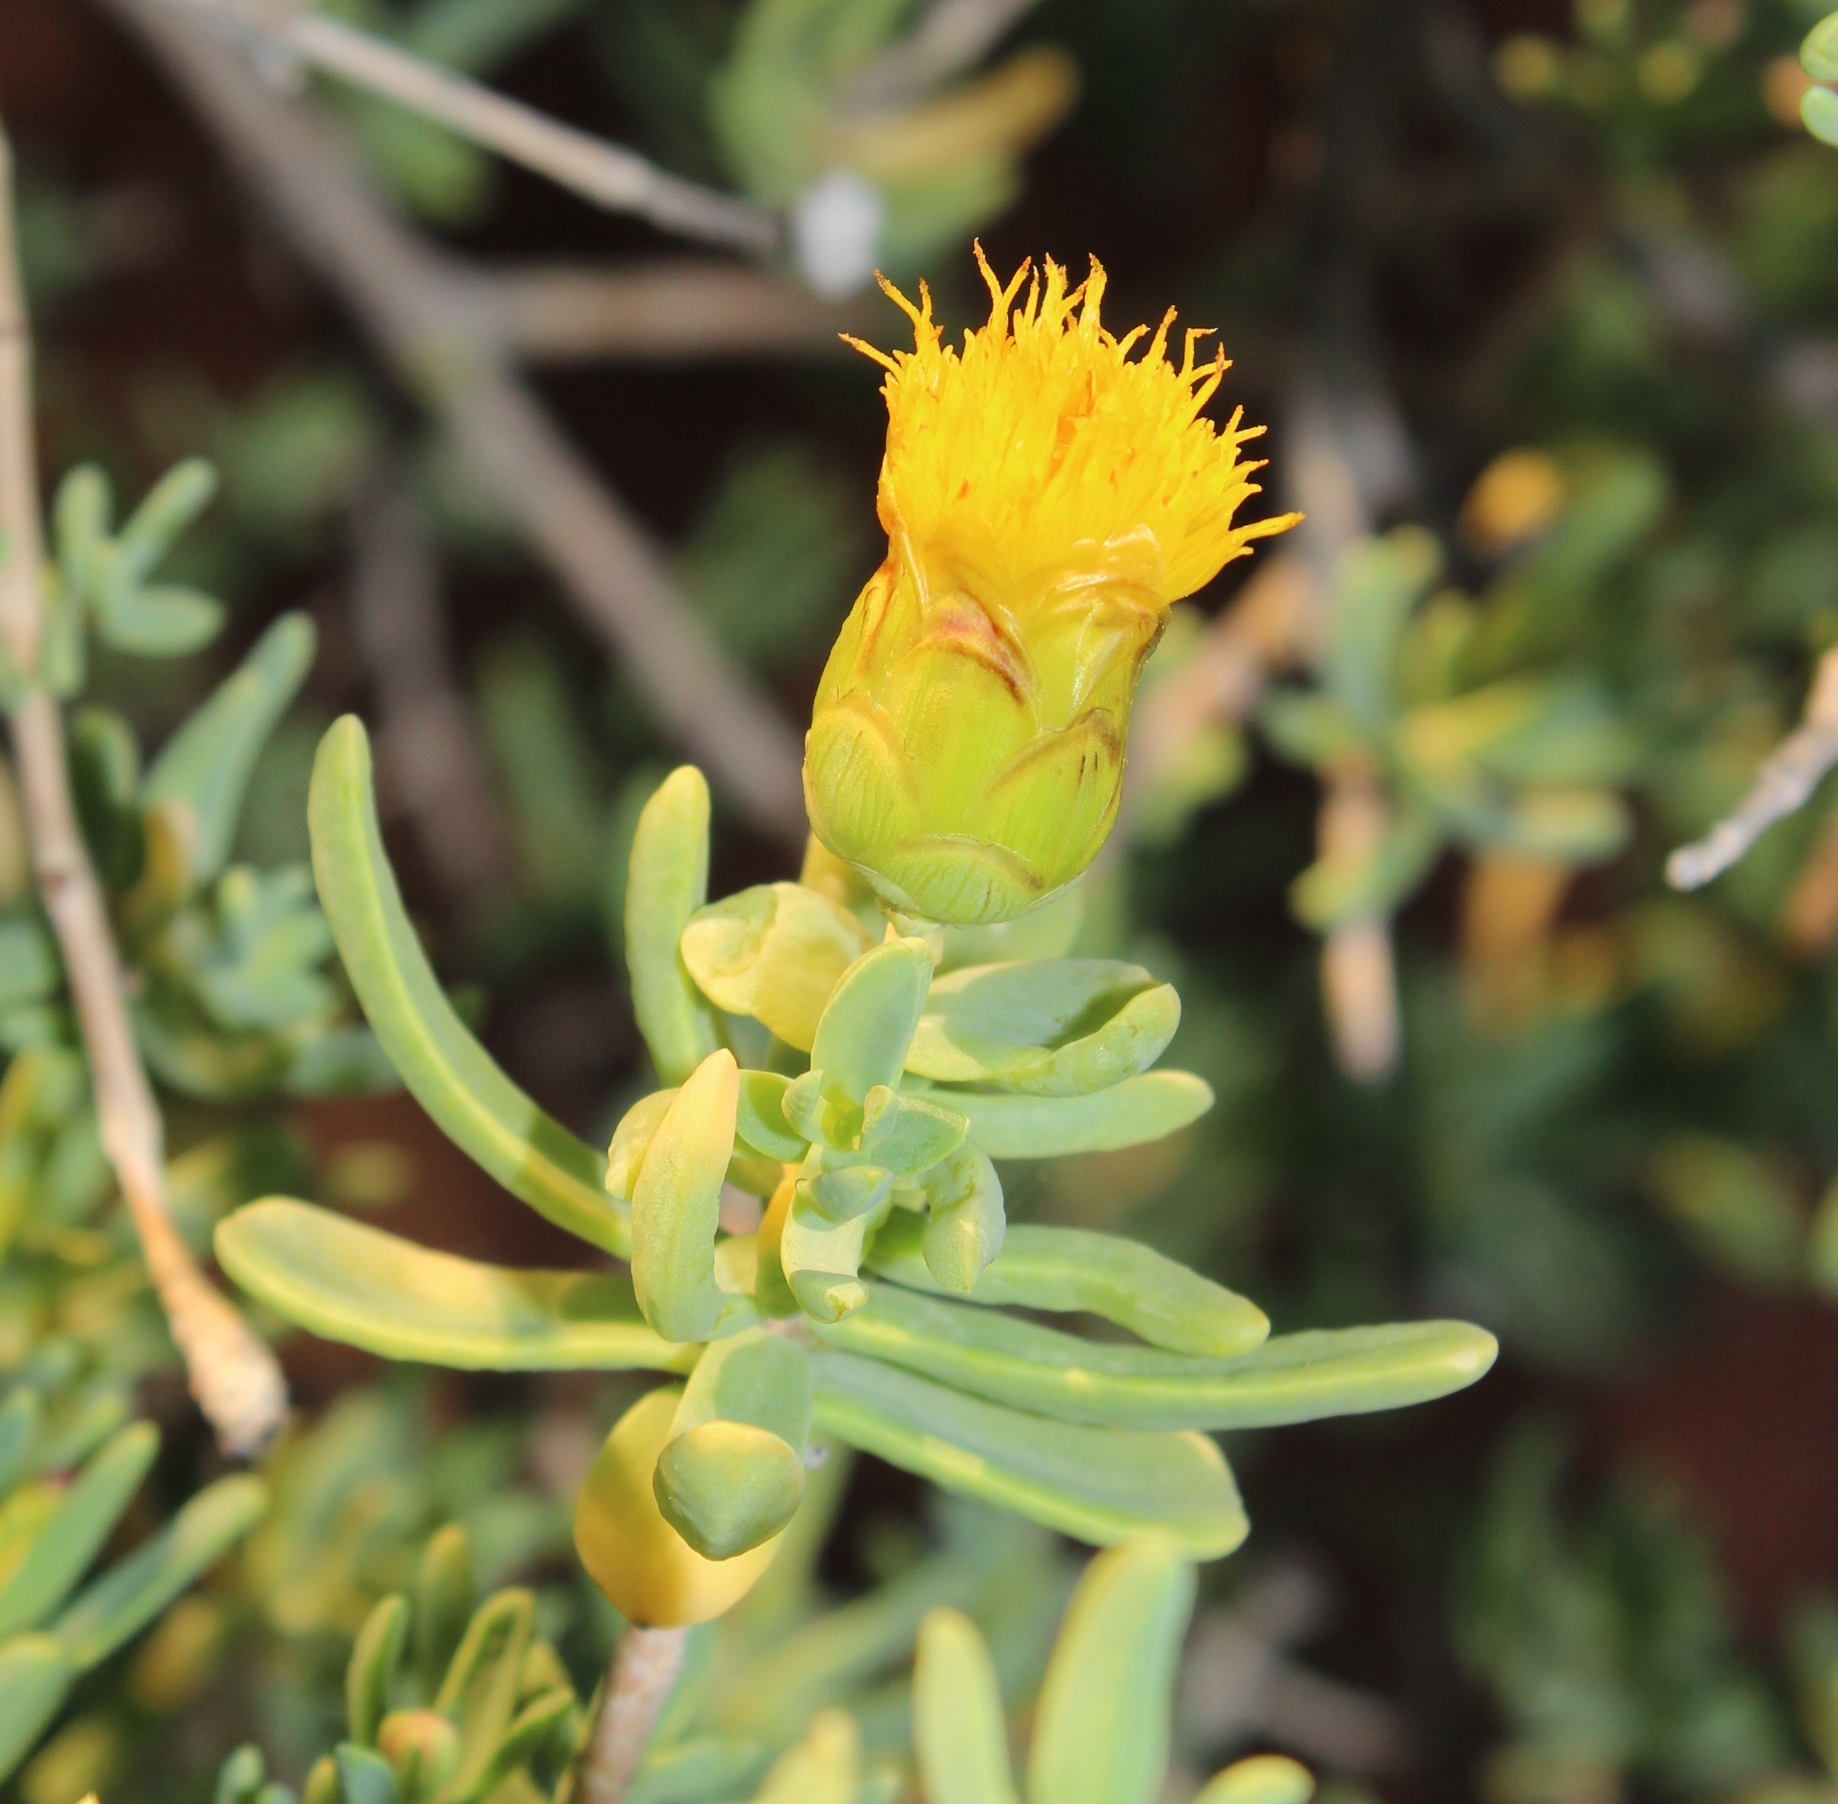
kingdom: Plantae
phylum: Tracheophyta
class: Magnoliopsida
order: Asterales
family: Asteraceae
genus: Pteronia
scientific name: Pteronia glabrata
